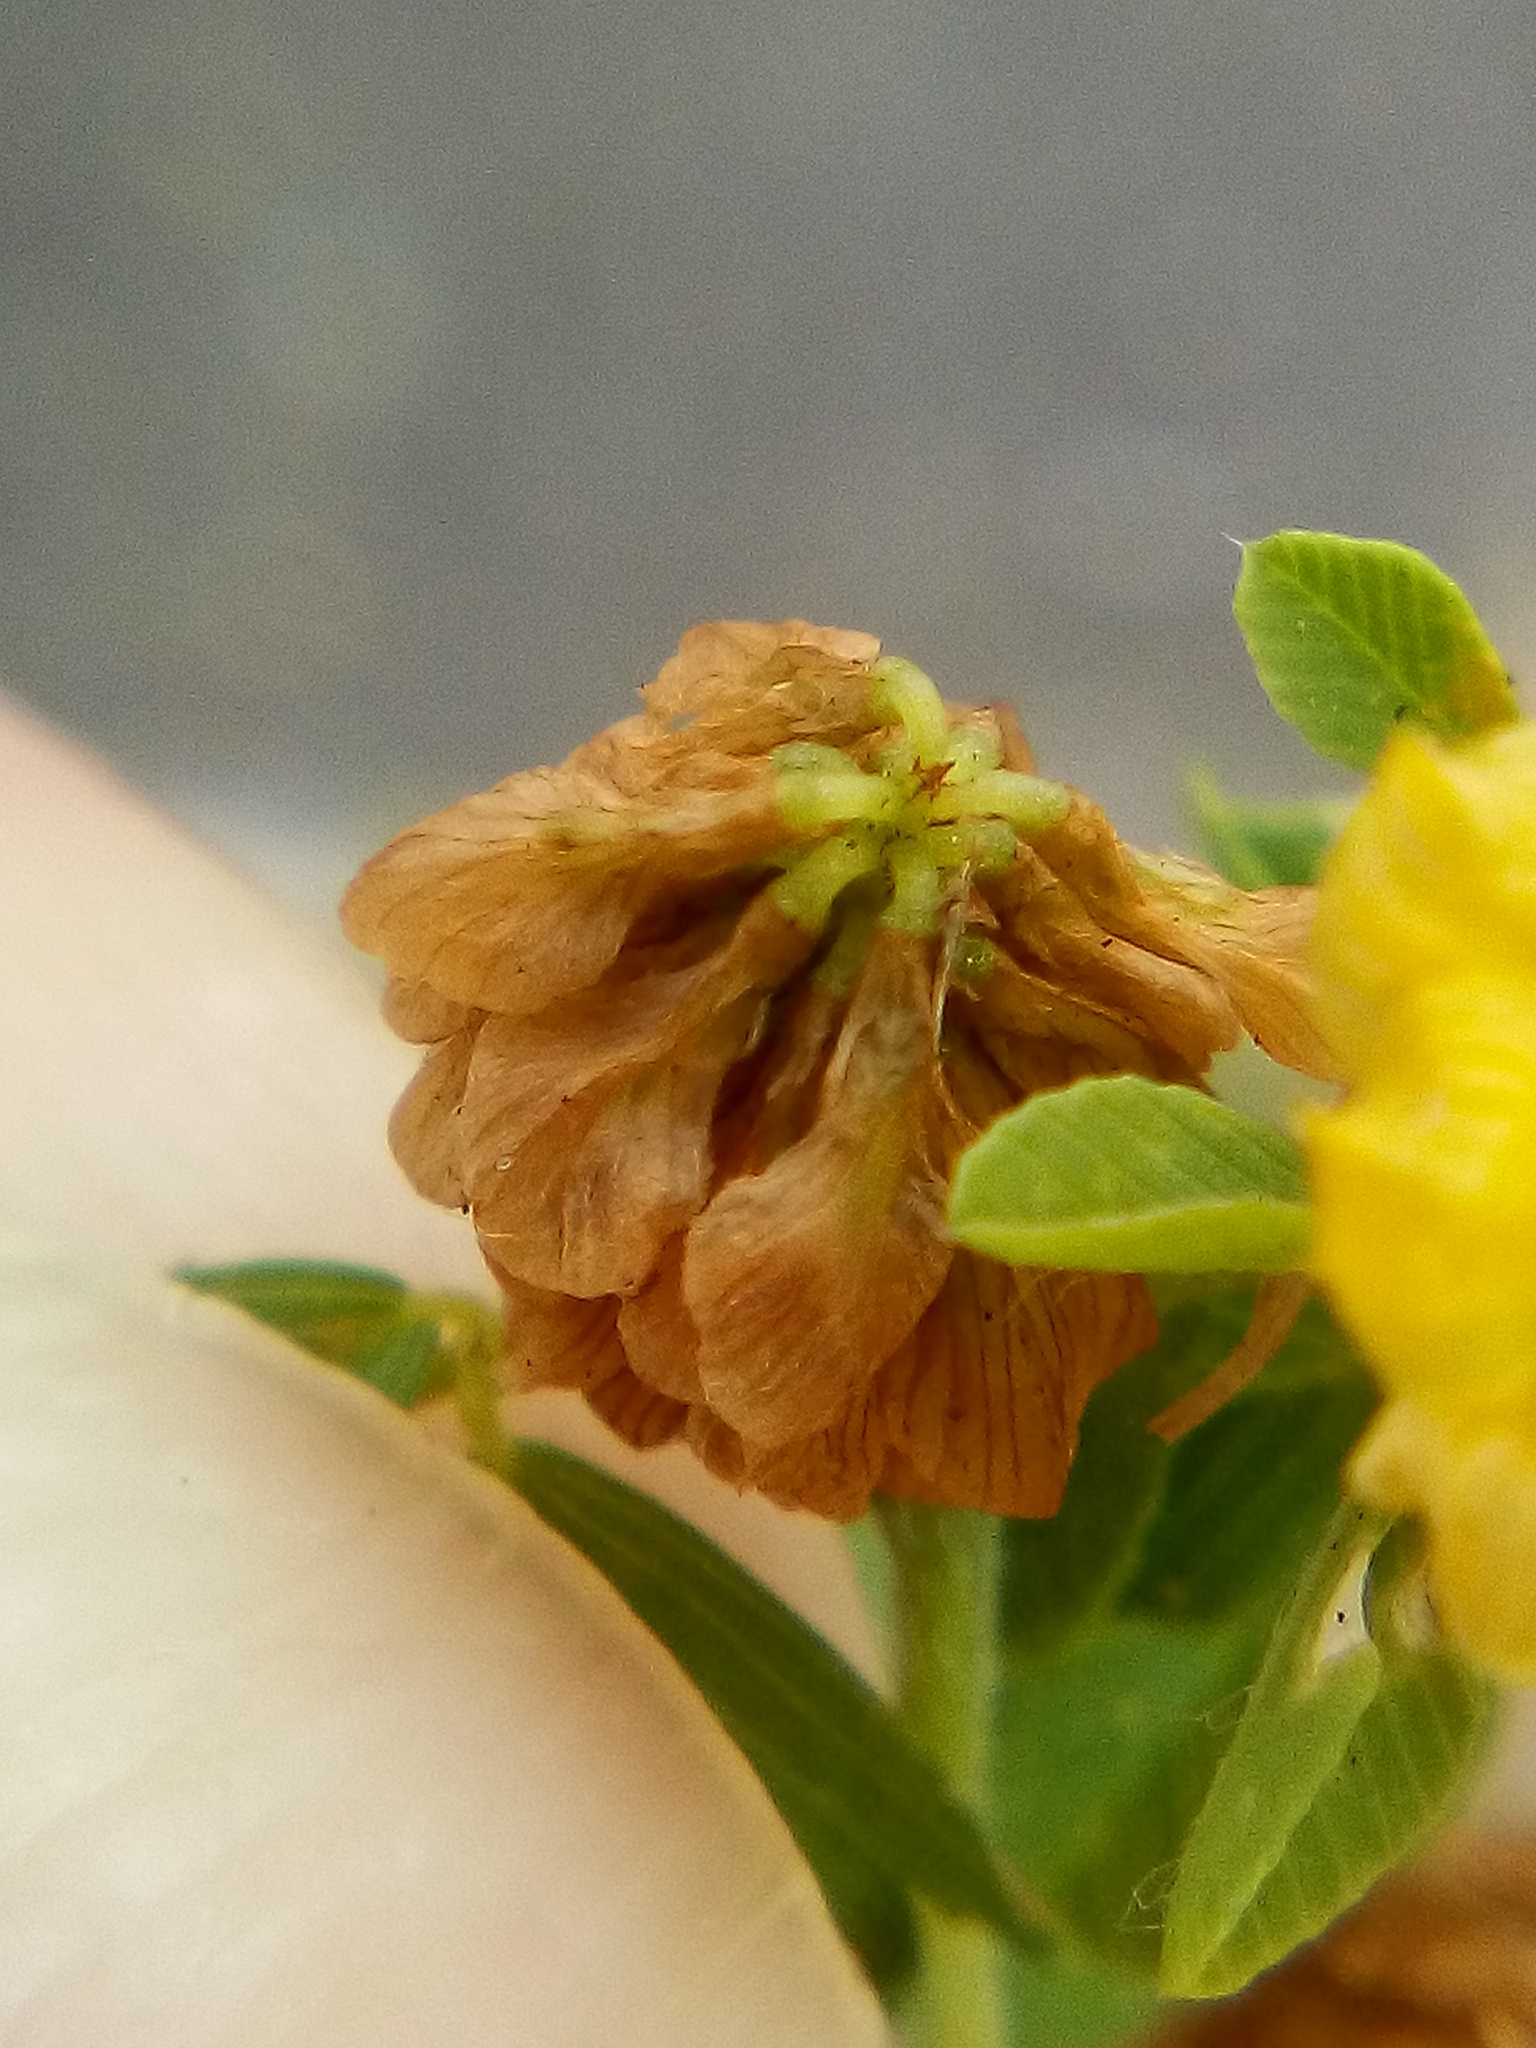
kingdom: Plantae
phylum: Tracheophyta
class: Magnoliopsida
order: Fabales
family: Fabaceae
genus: Trifolium
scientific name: Trifolium campestre
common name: Field clover
